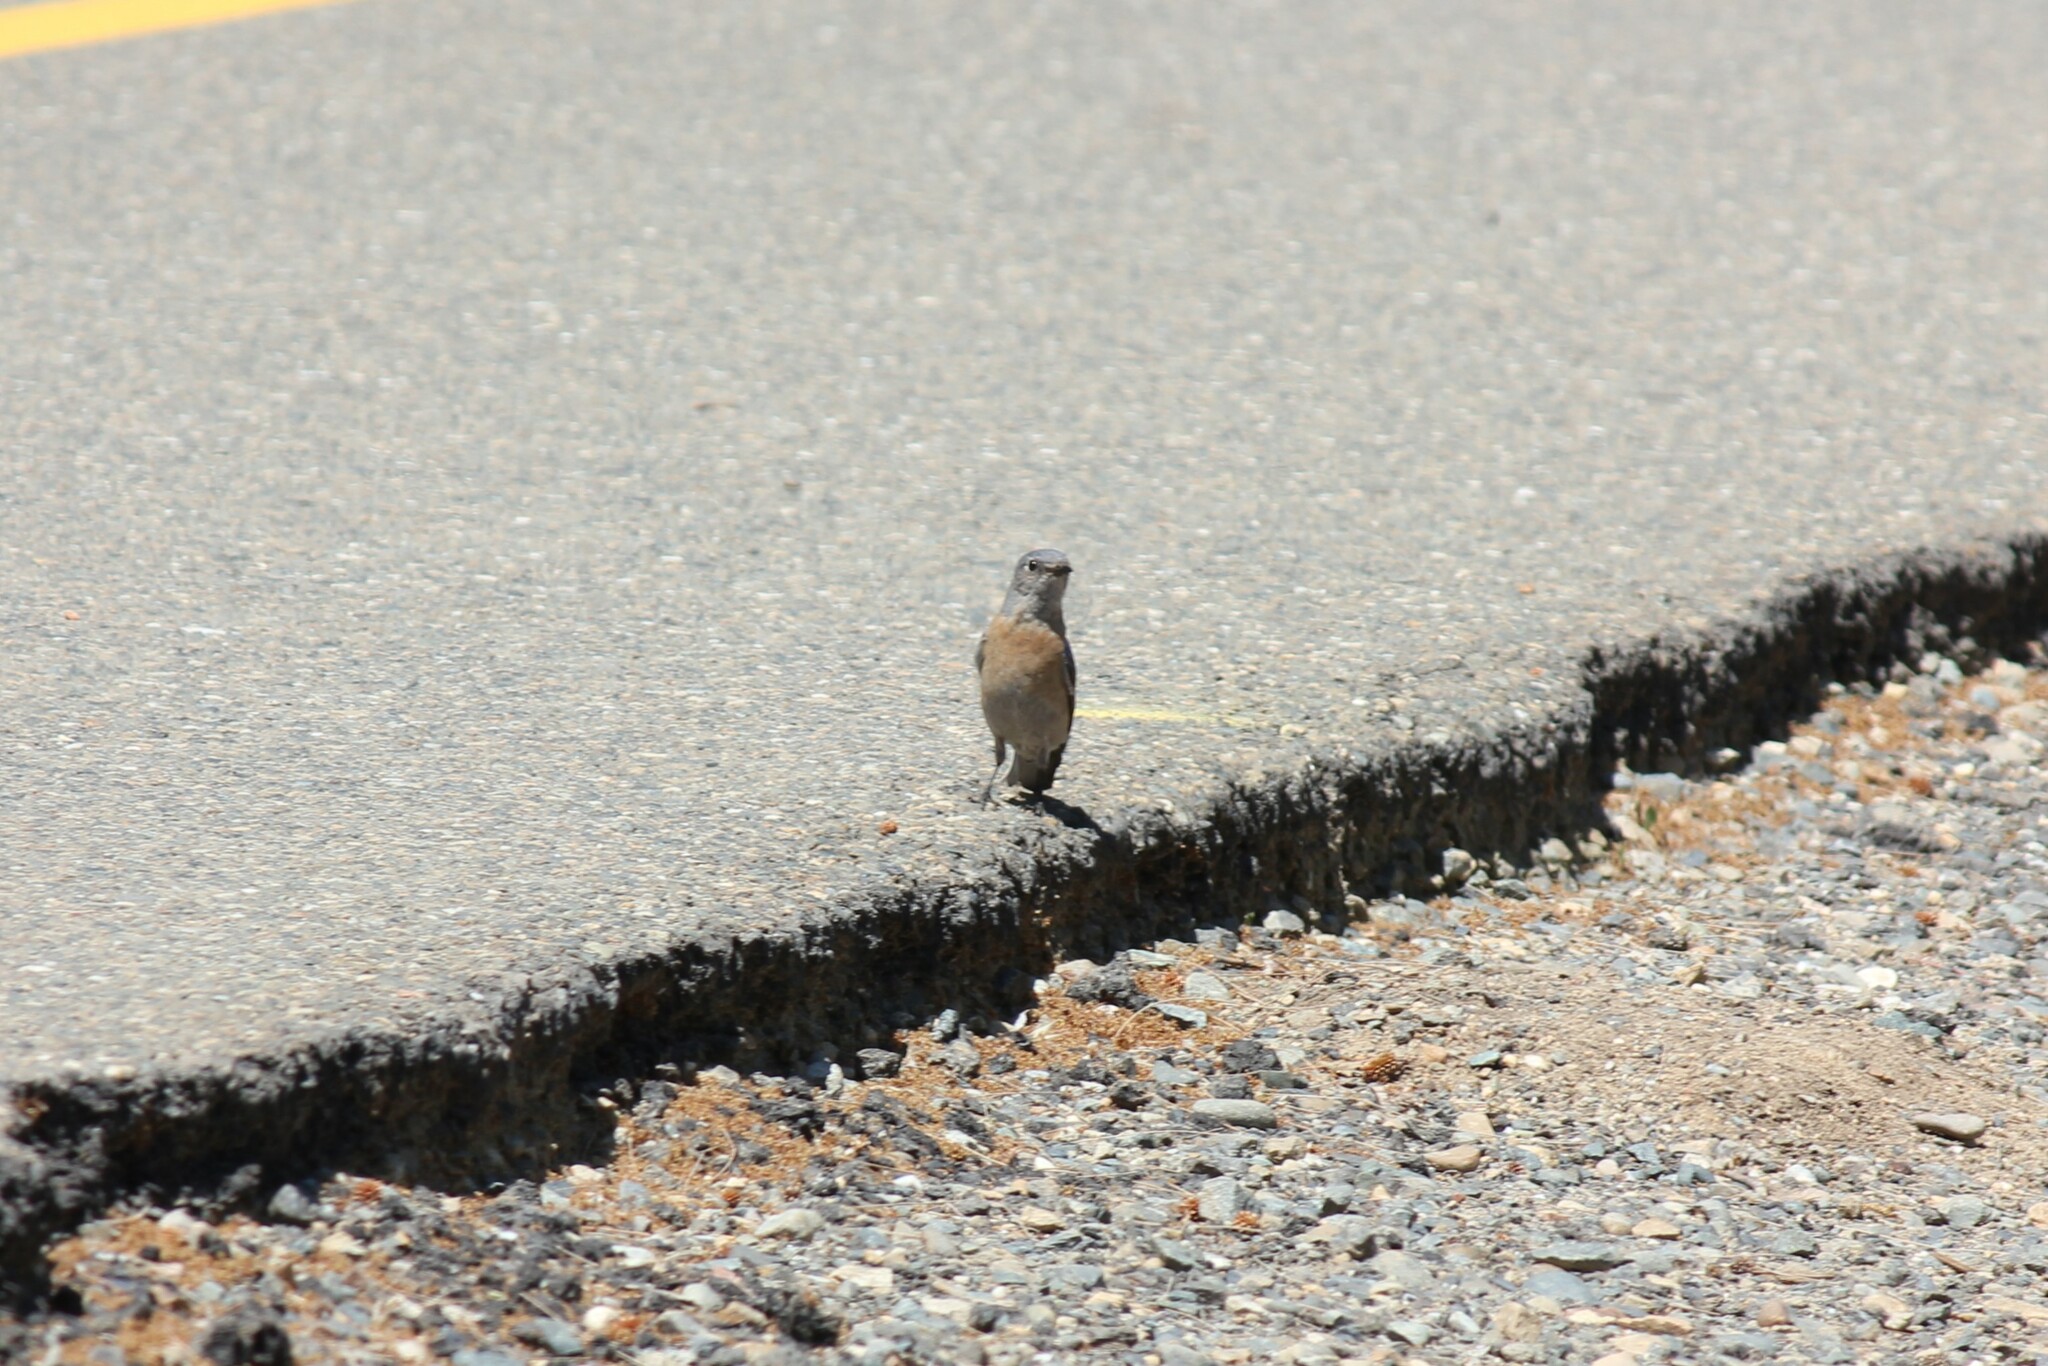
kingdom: Animalia
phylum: Chordata
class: Aves
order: Passeriformes
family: Turdidae
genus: Sialia
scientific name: Sialia mexicana
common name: Western bluebird
